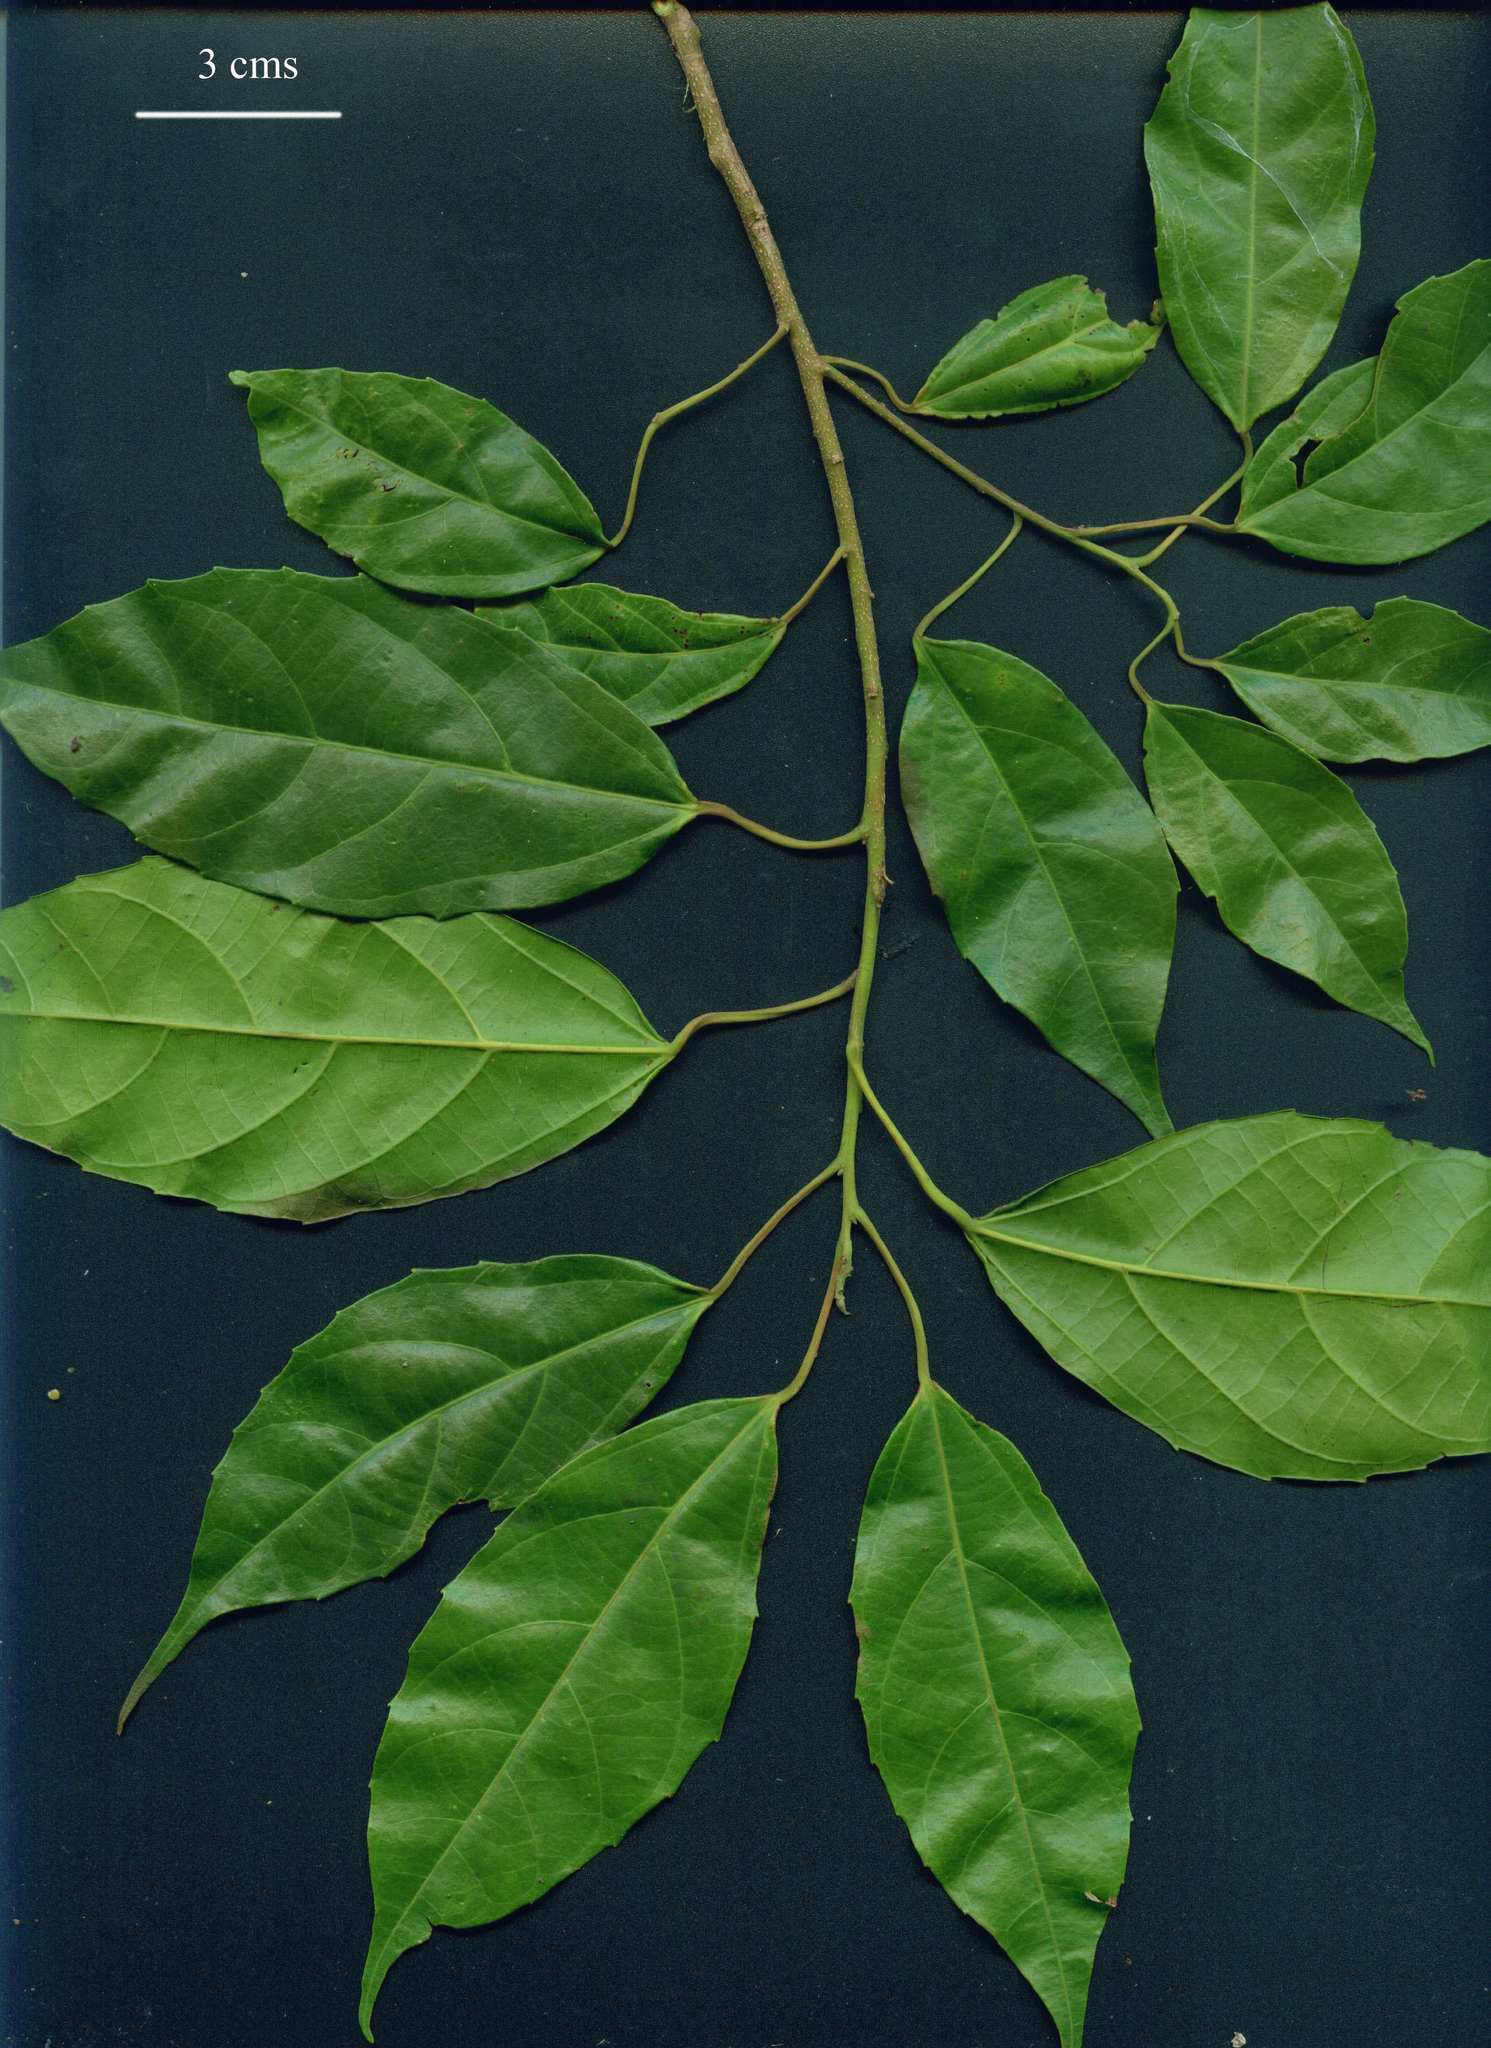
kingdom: Plantae
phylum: Tracheophyta
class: Magnoliopsida
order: Malpighiales
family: Euphorbiaceae
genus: Alchornea
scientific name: Alchornea costaricensis
